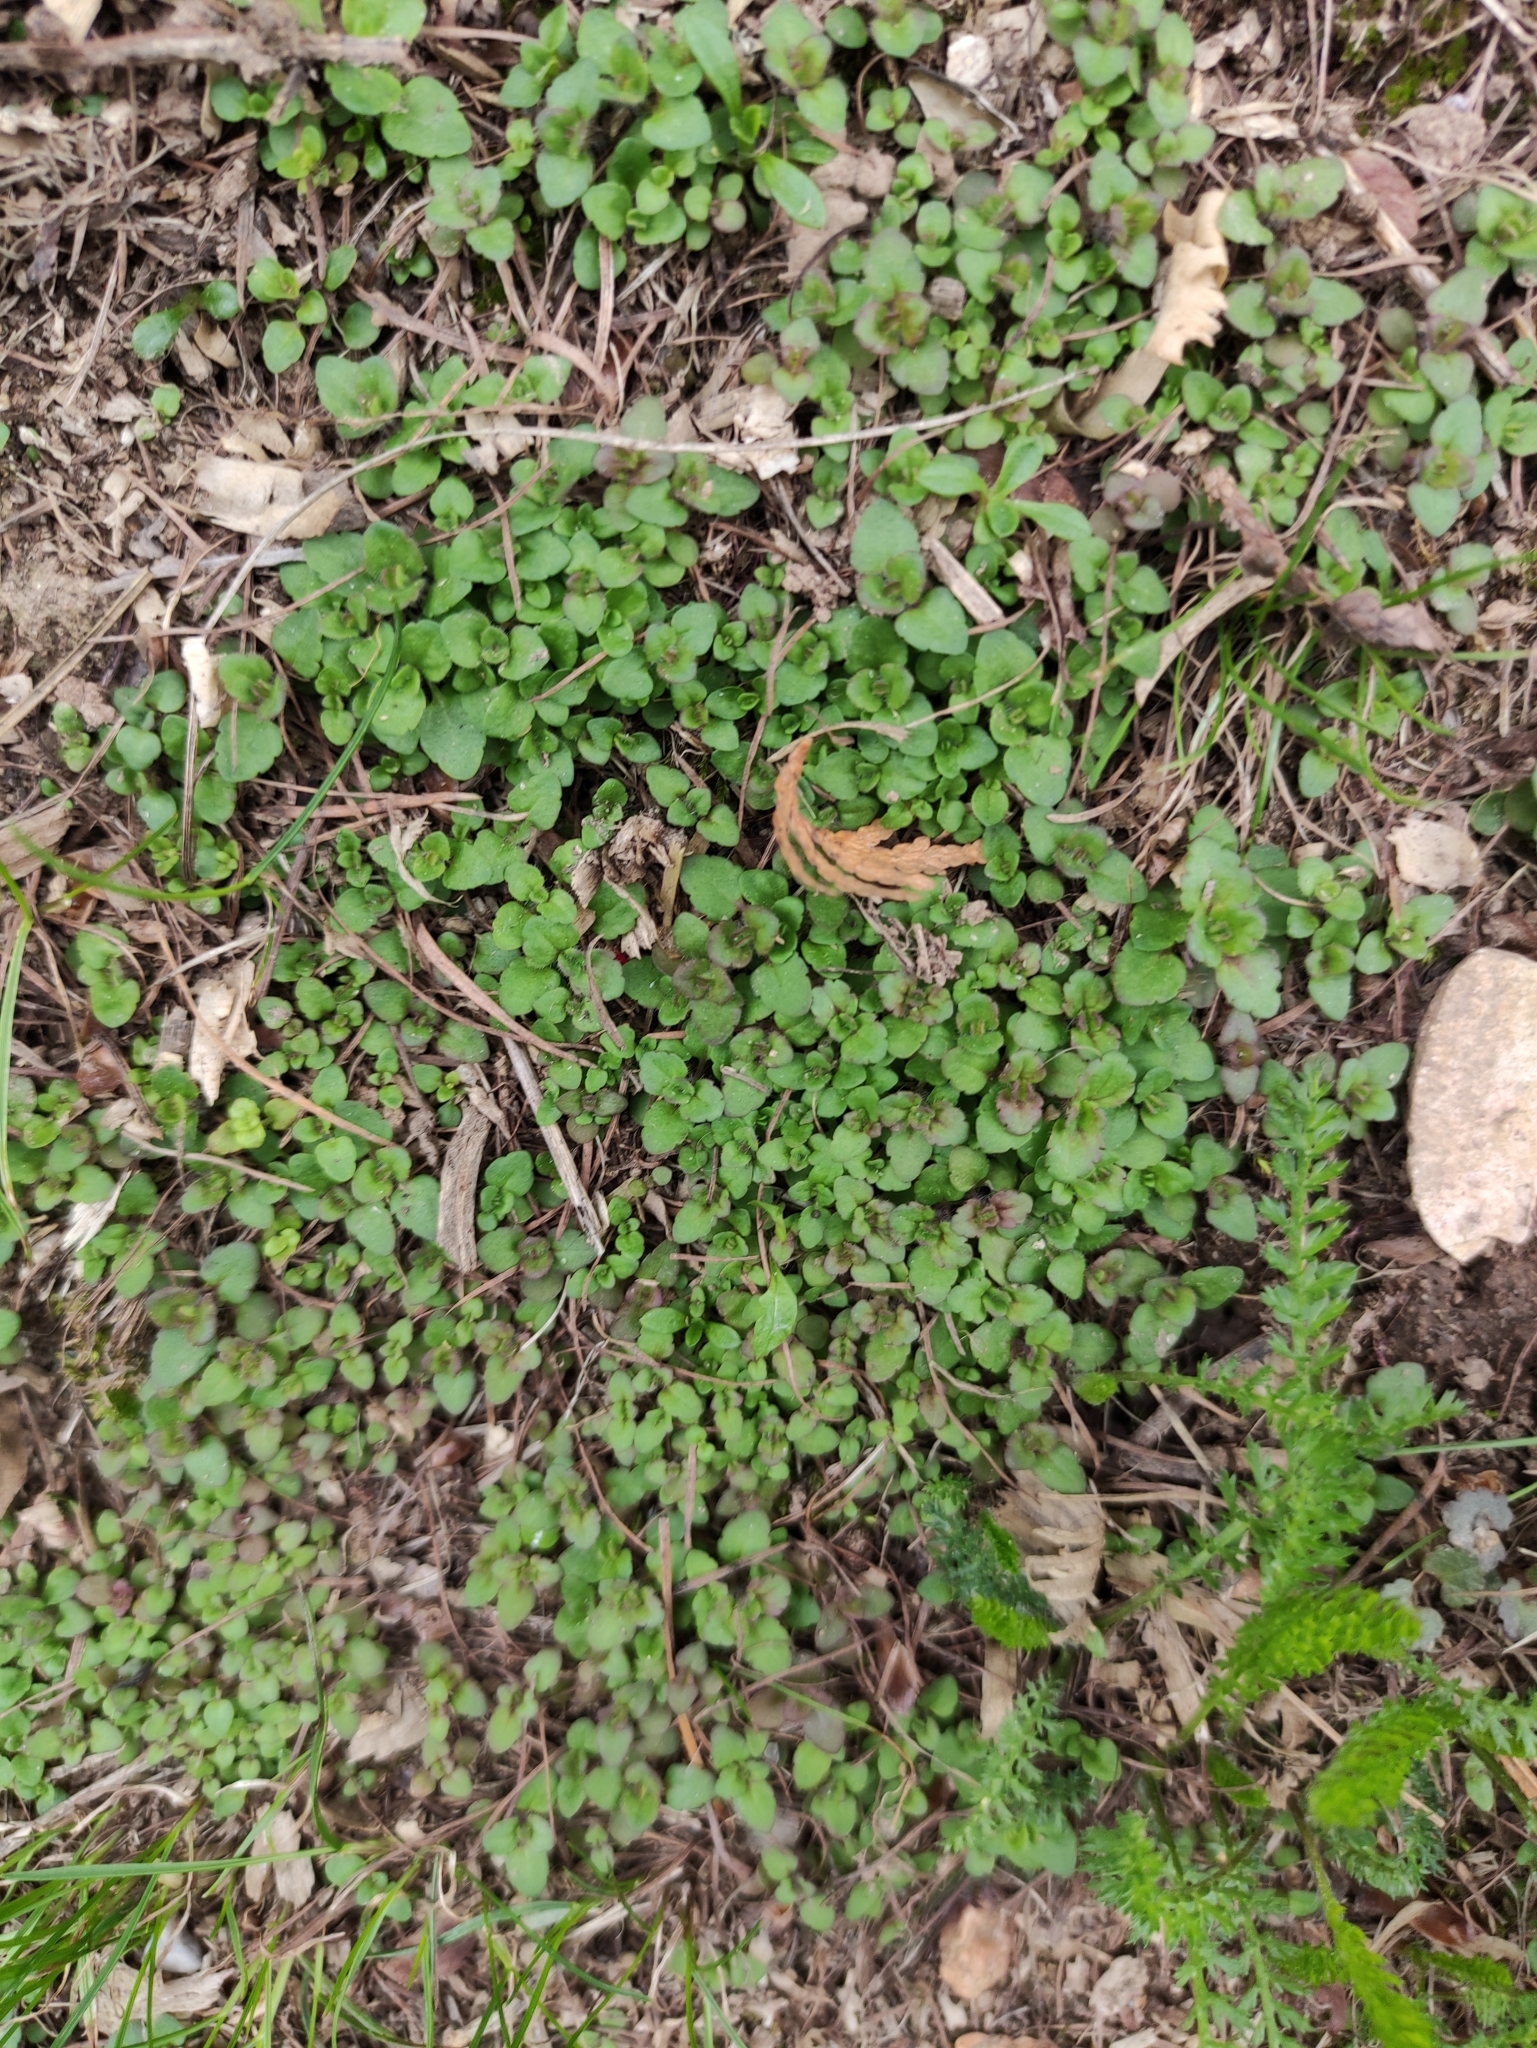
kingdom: Plantae
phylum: Tracheophyta
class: Magnoliopsida
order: Lamiales
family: Plantaginaceae
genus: Veronica
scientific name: Veronica filiformis
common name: Slender speedwell
